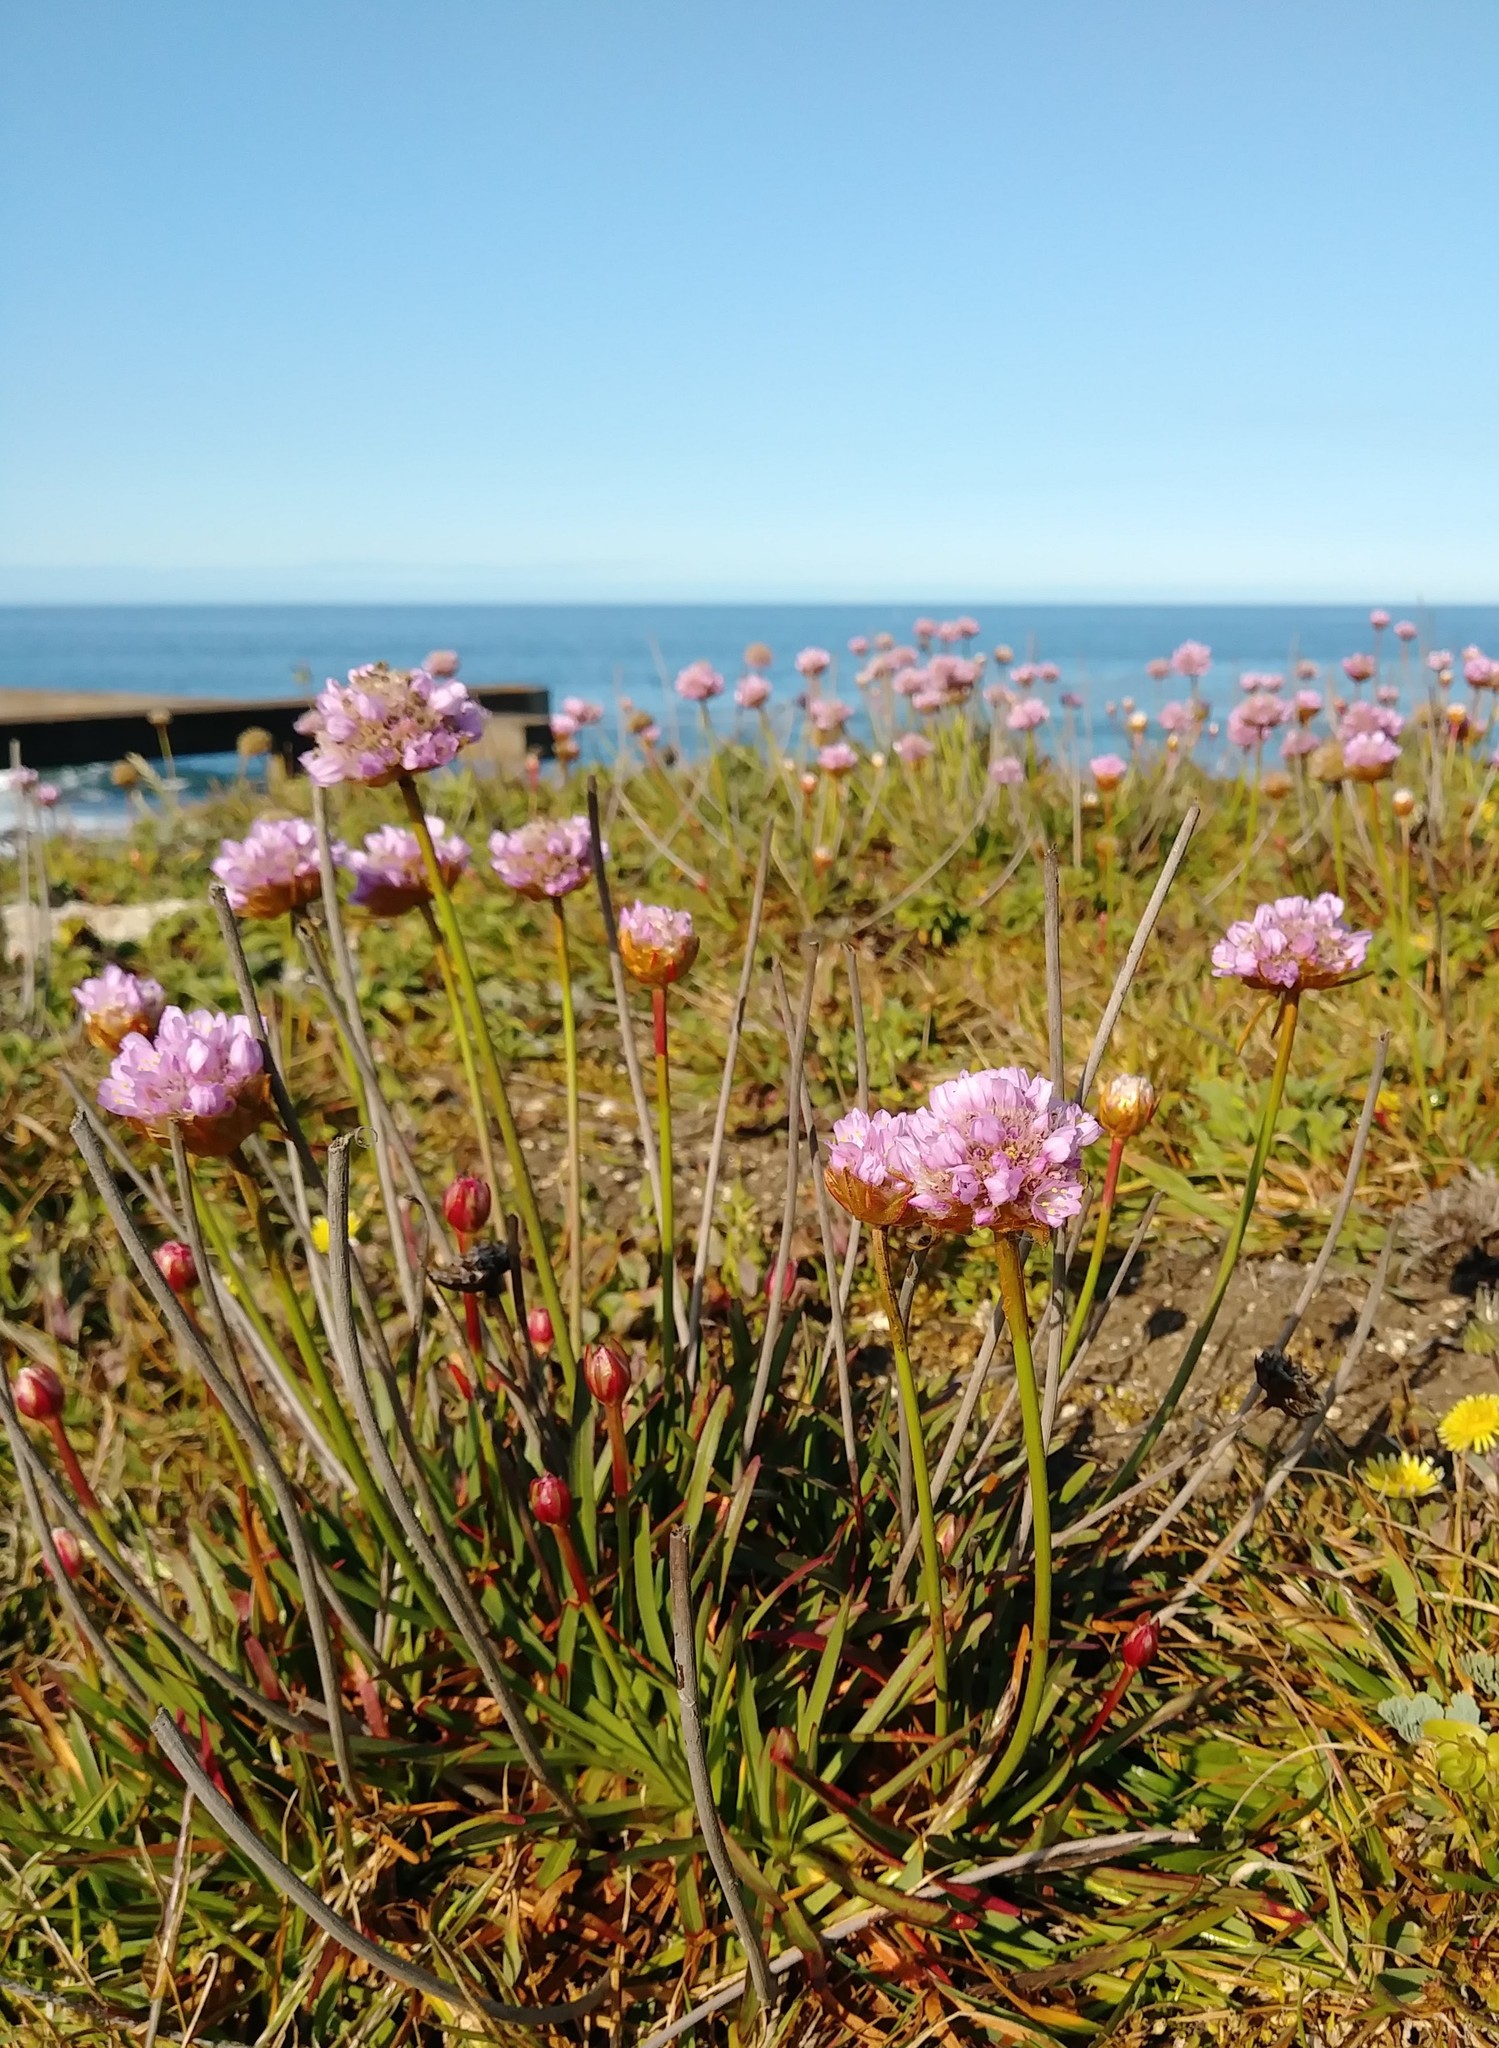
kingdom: Plantae
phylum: Tracheophyta
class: Magnoliopsida
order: Caryophyllales
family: Plumbaginaceae
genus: Armeria
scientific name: Armeria maritima
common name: Thrift
